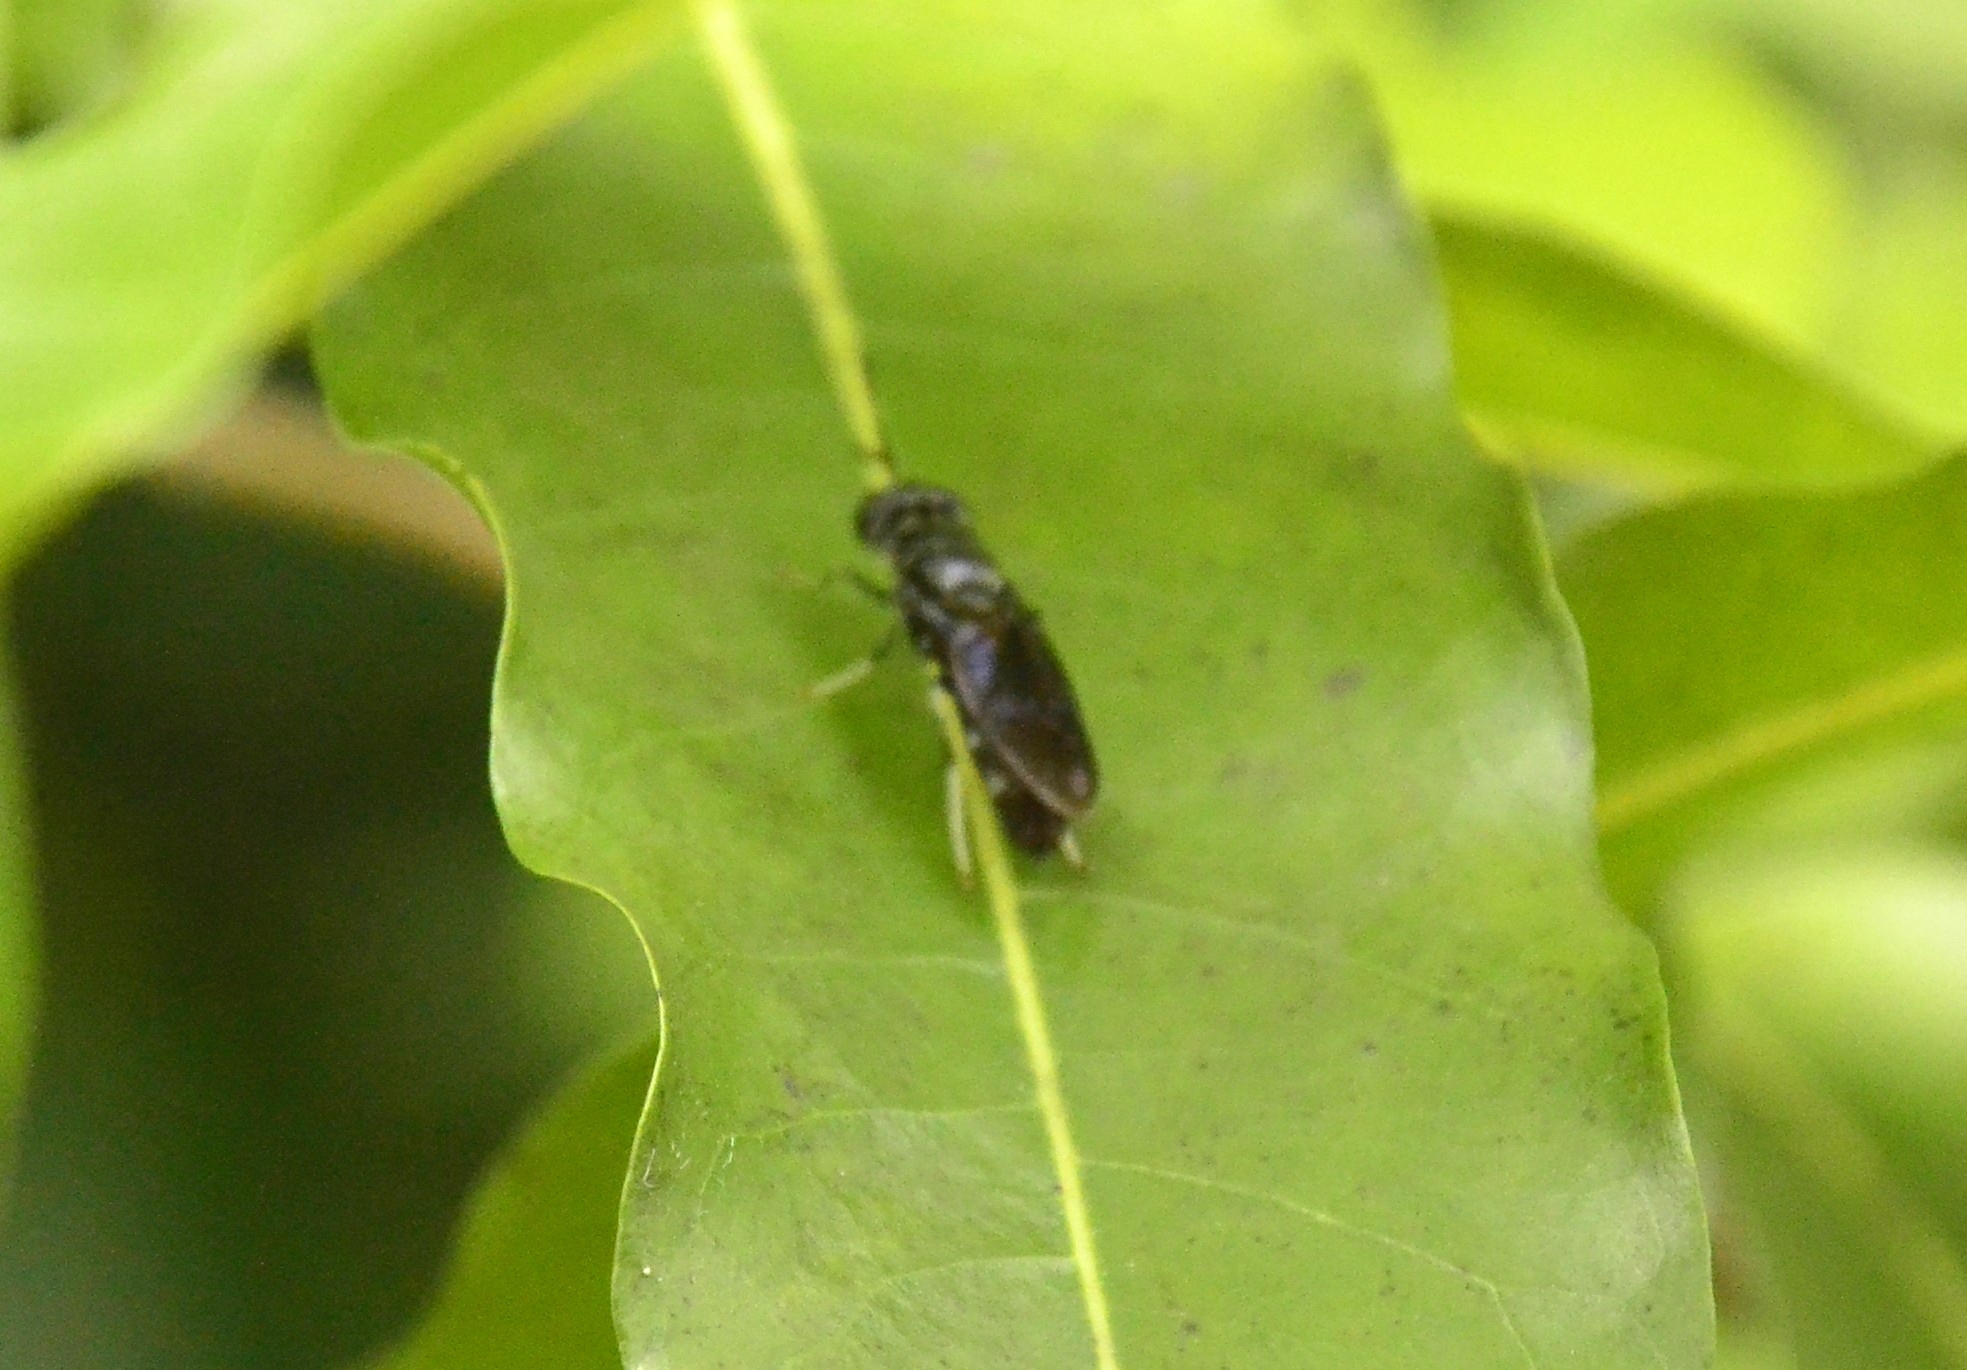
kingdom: Animalia
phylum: Arthropoda
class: Insecta
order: Diptera
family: Stratiomyidae
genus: Hermetia
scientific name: Hermetia illucens
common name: Black soldier fly
